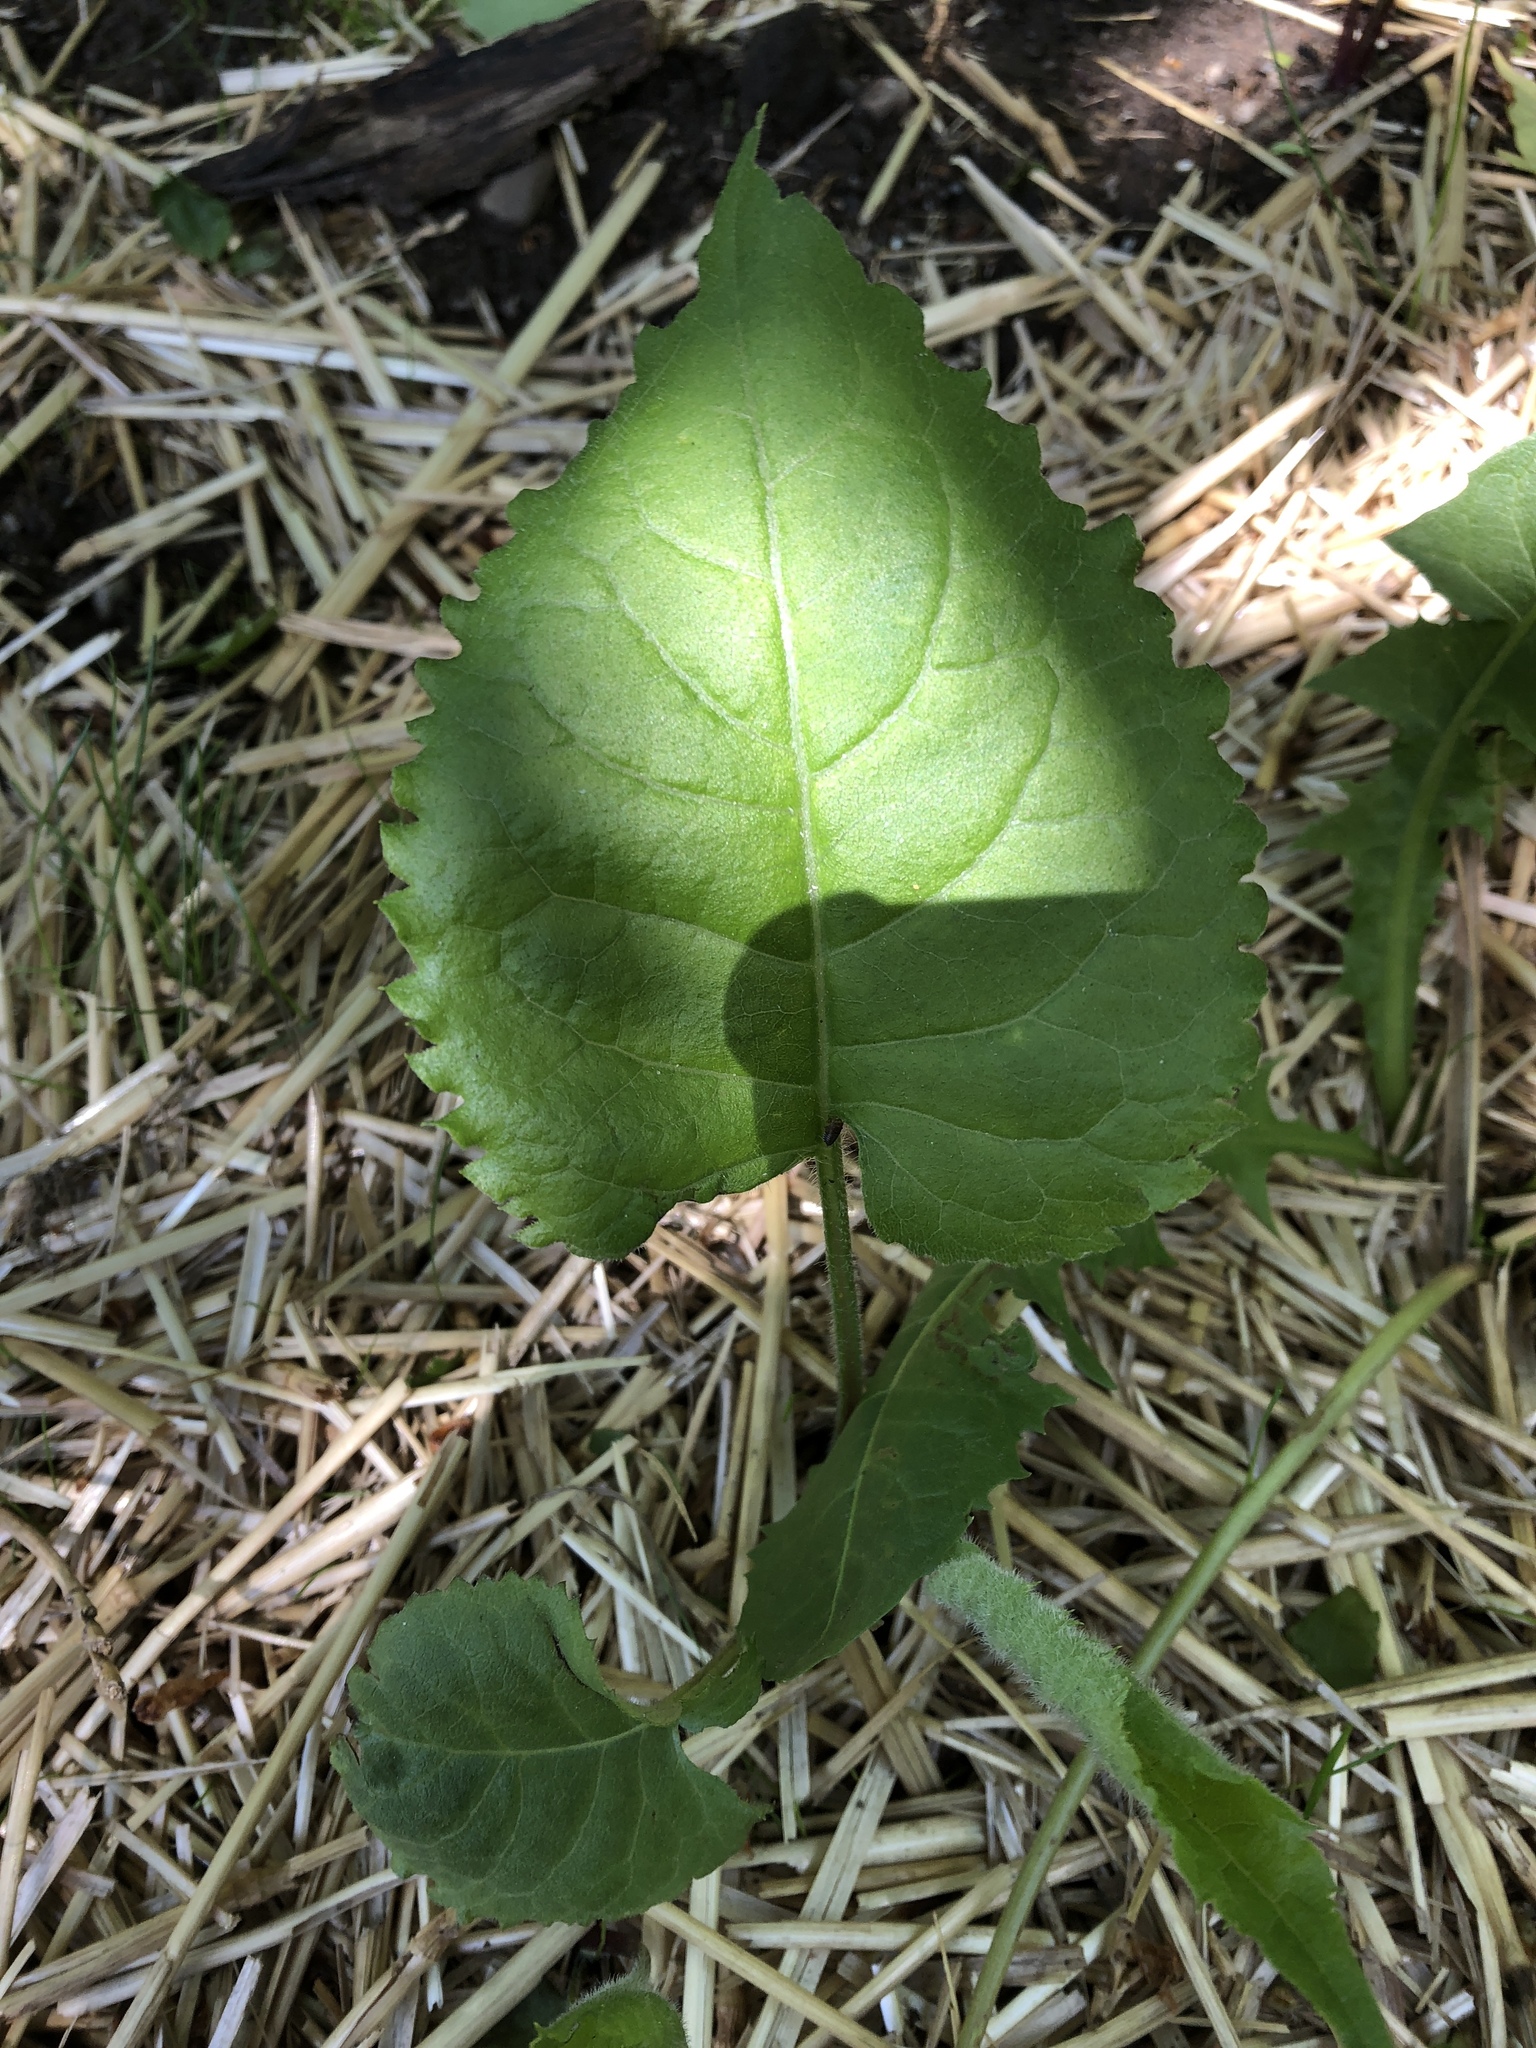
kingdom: Plantae
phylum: Tracheophyta
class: Magnoliopsida
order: Asterales
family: Asteraceae
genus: Eurybia
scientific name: Eurybia macrophylla
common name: Big-leaved aster
